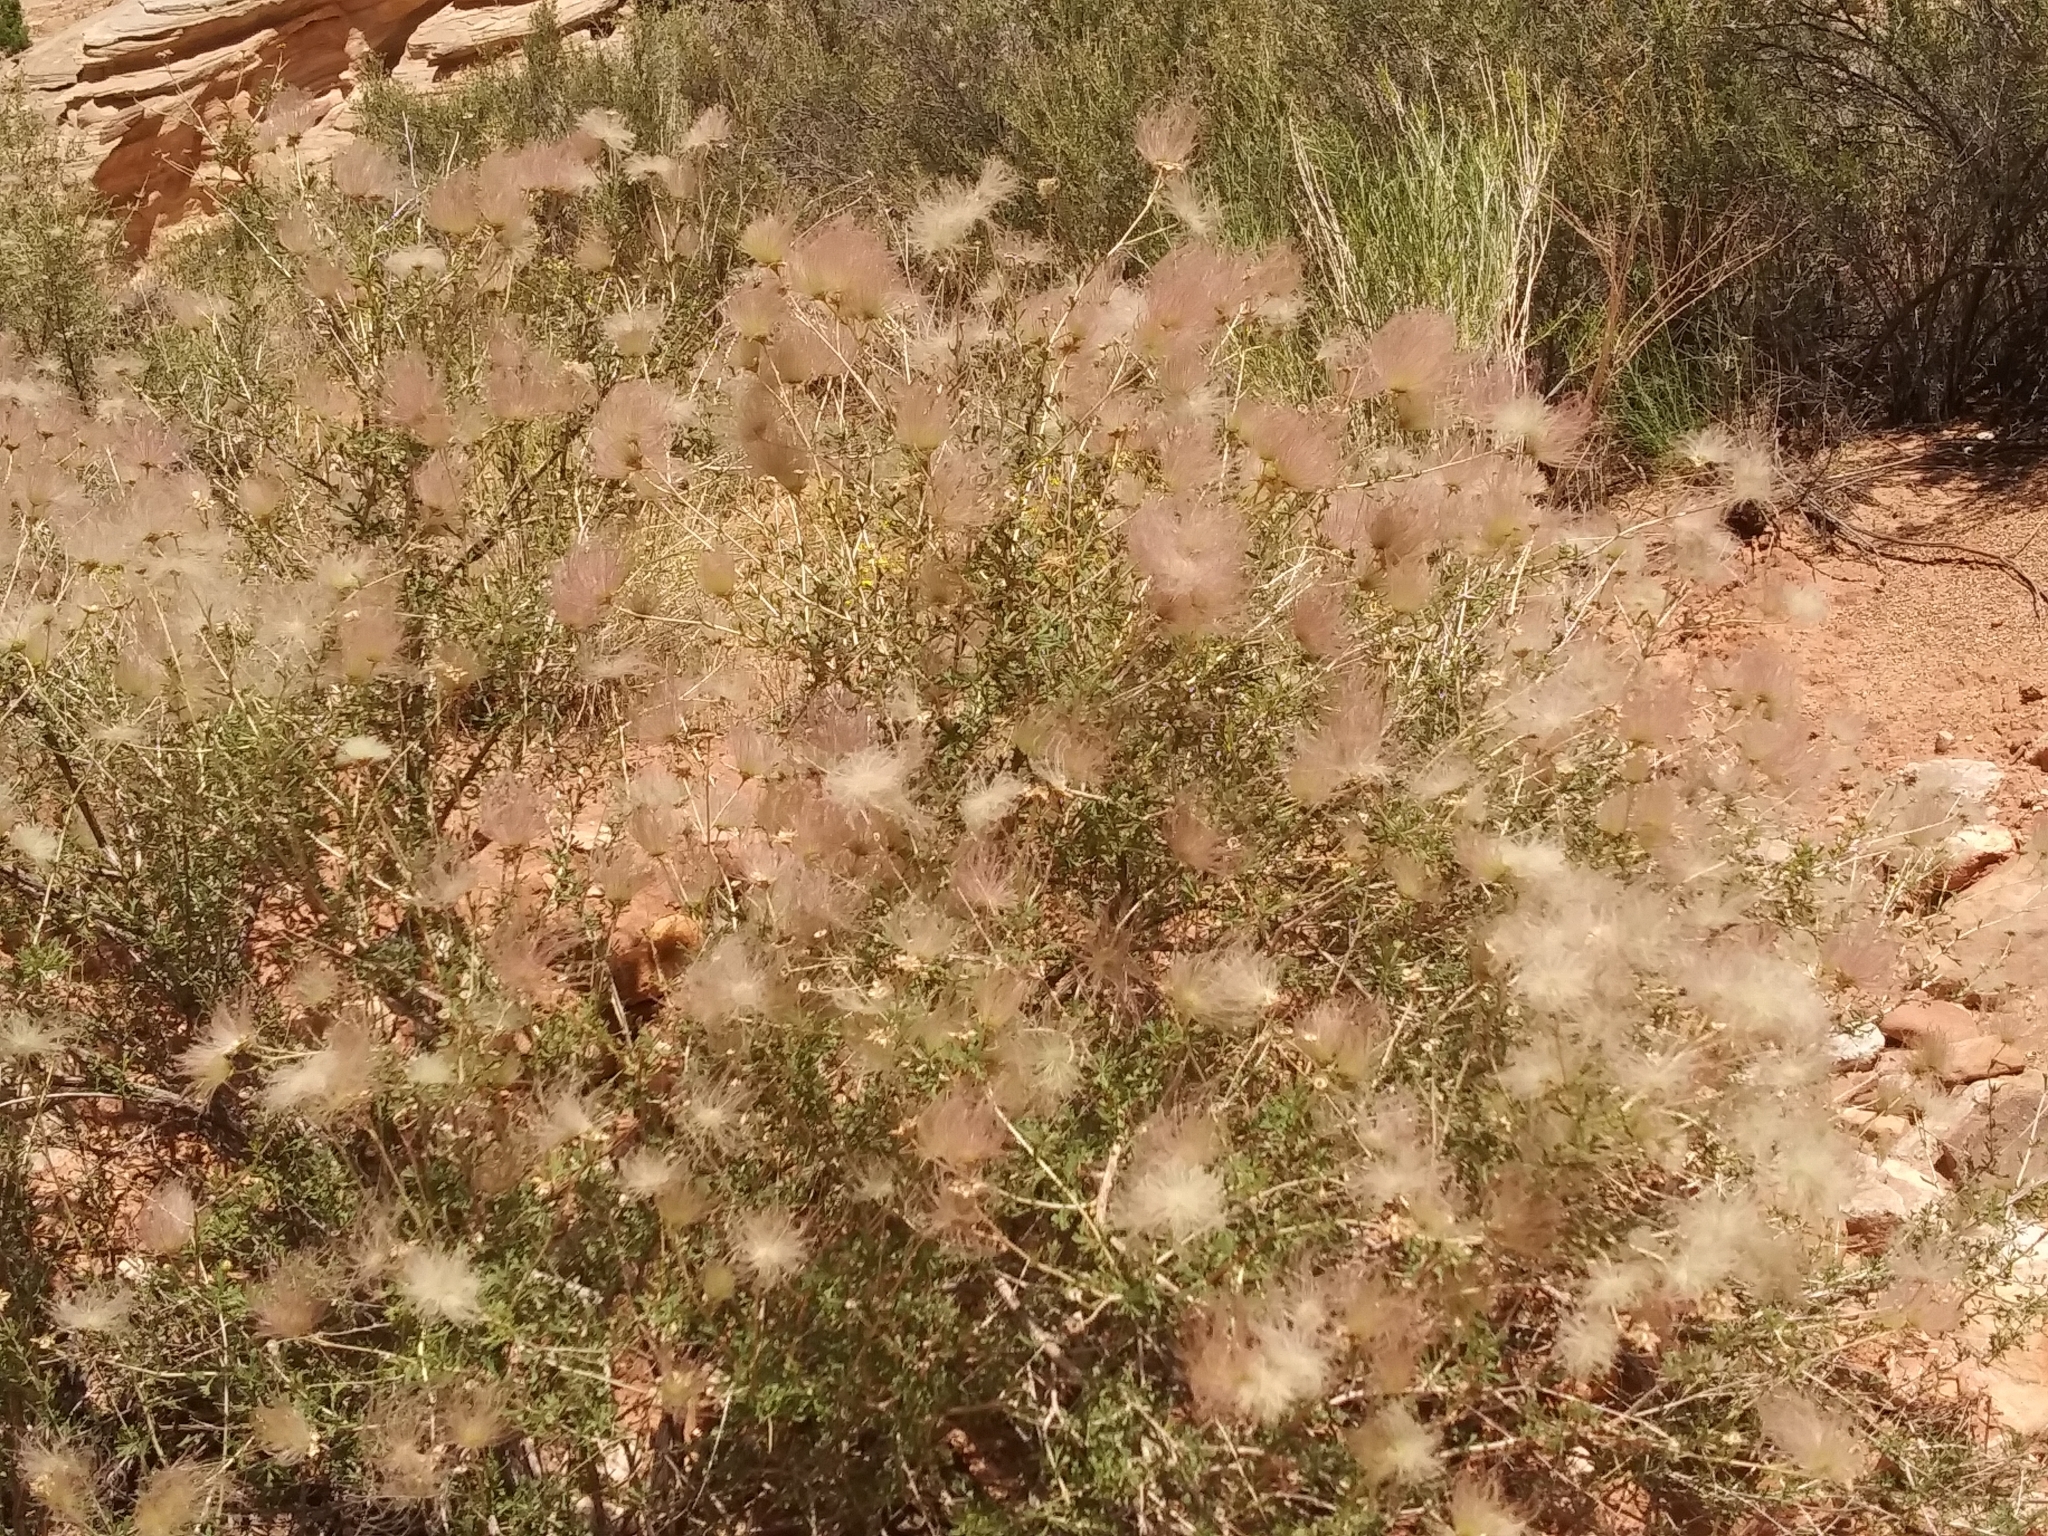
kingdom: Plantae
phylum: Tracheophyta
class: Magnoliopsida
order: Rosales
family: Rosaceae
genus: Fallugia
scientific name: Fallugia paradoxa
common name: Apache-plume
